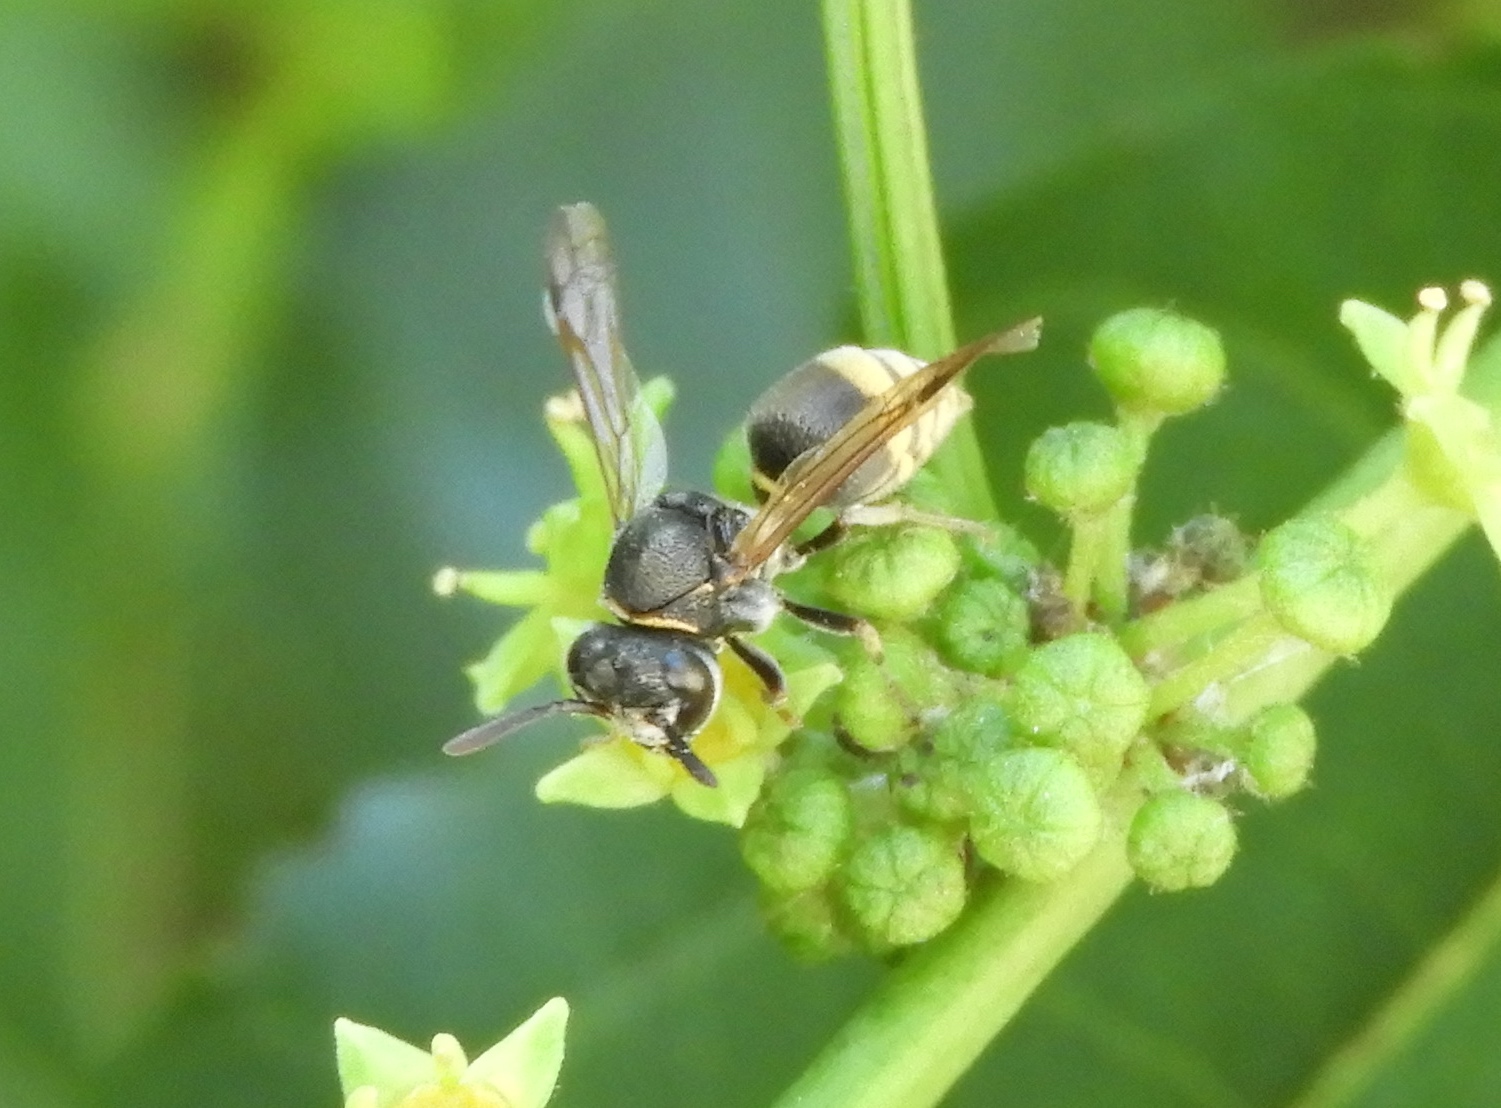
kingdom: Animalia
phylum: Arthropoda
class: Insecta
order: Hymenoptera
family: Vespidae
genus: Brachygastra
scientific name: Brachygastra azteca
